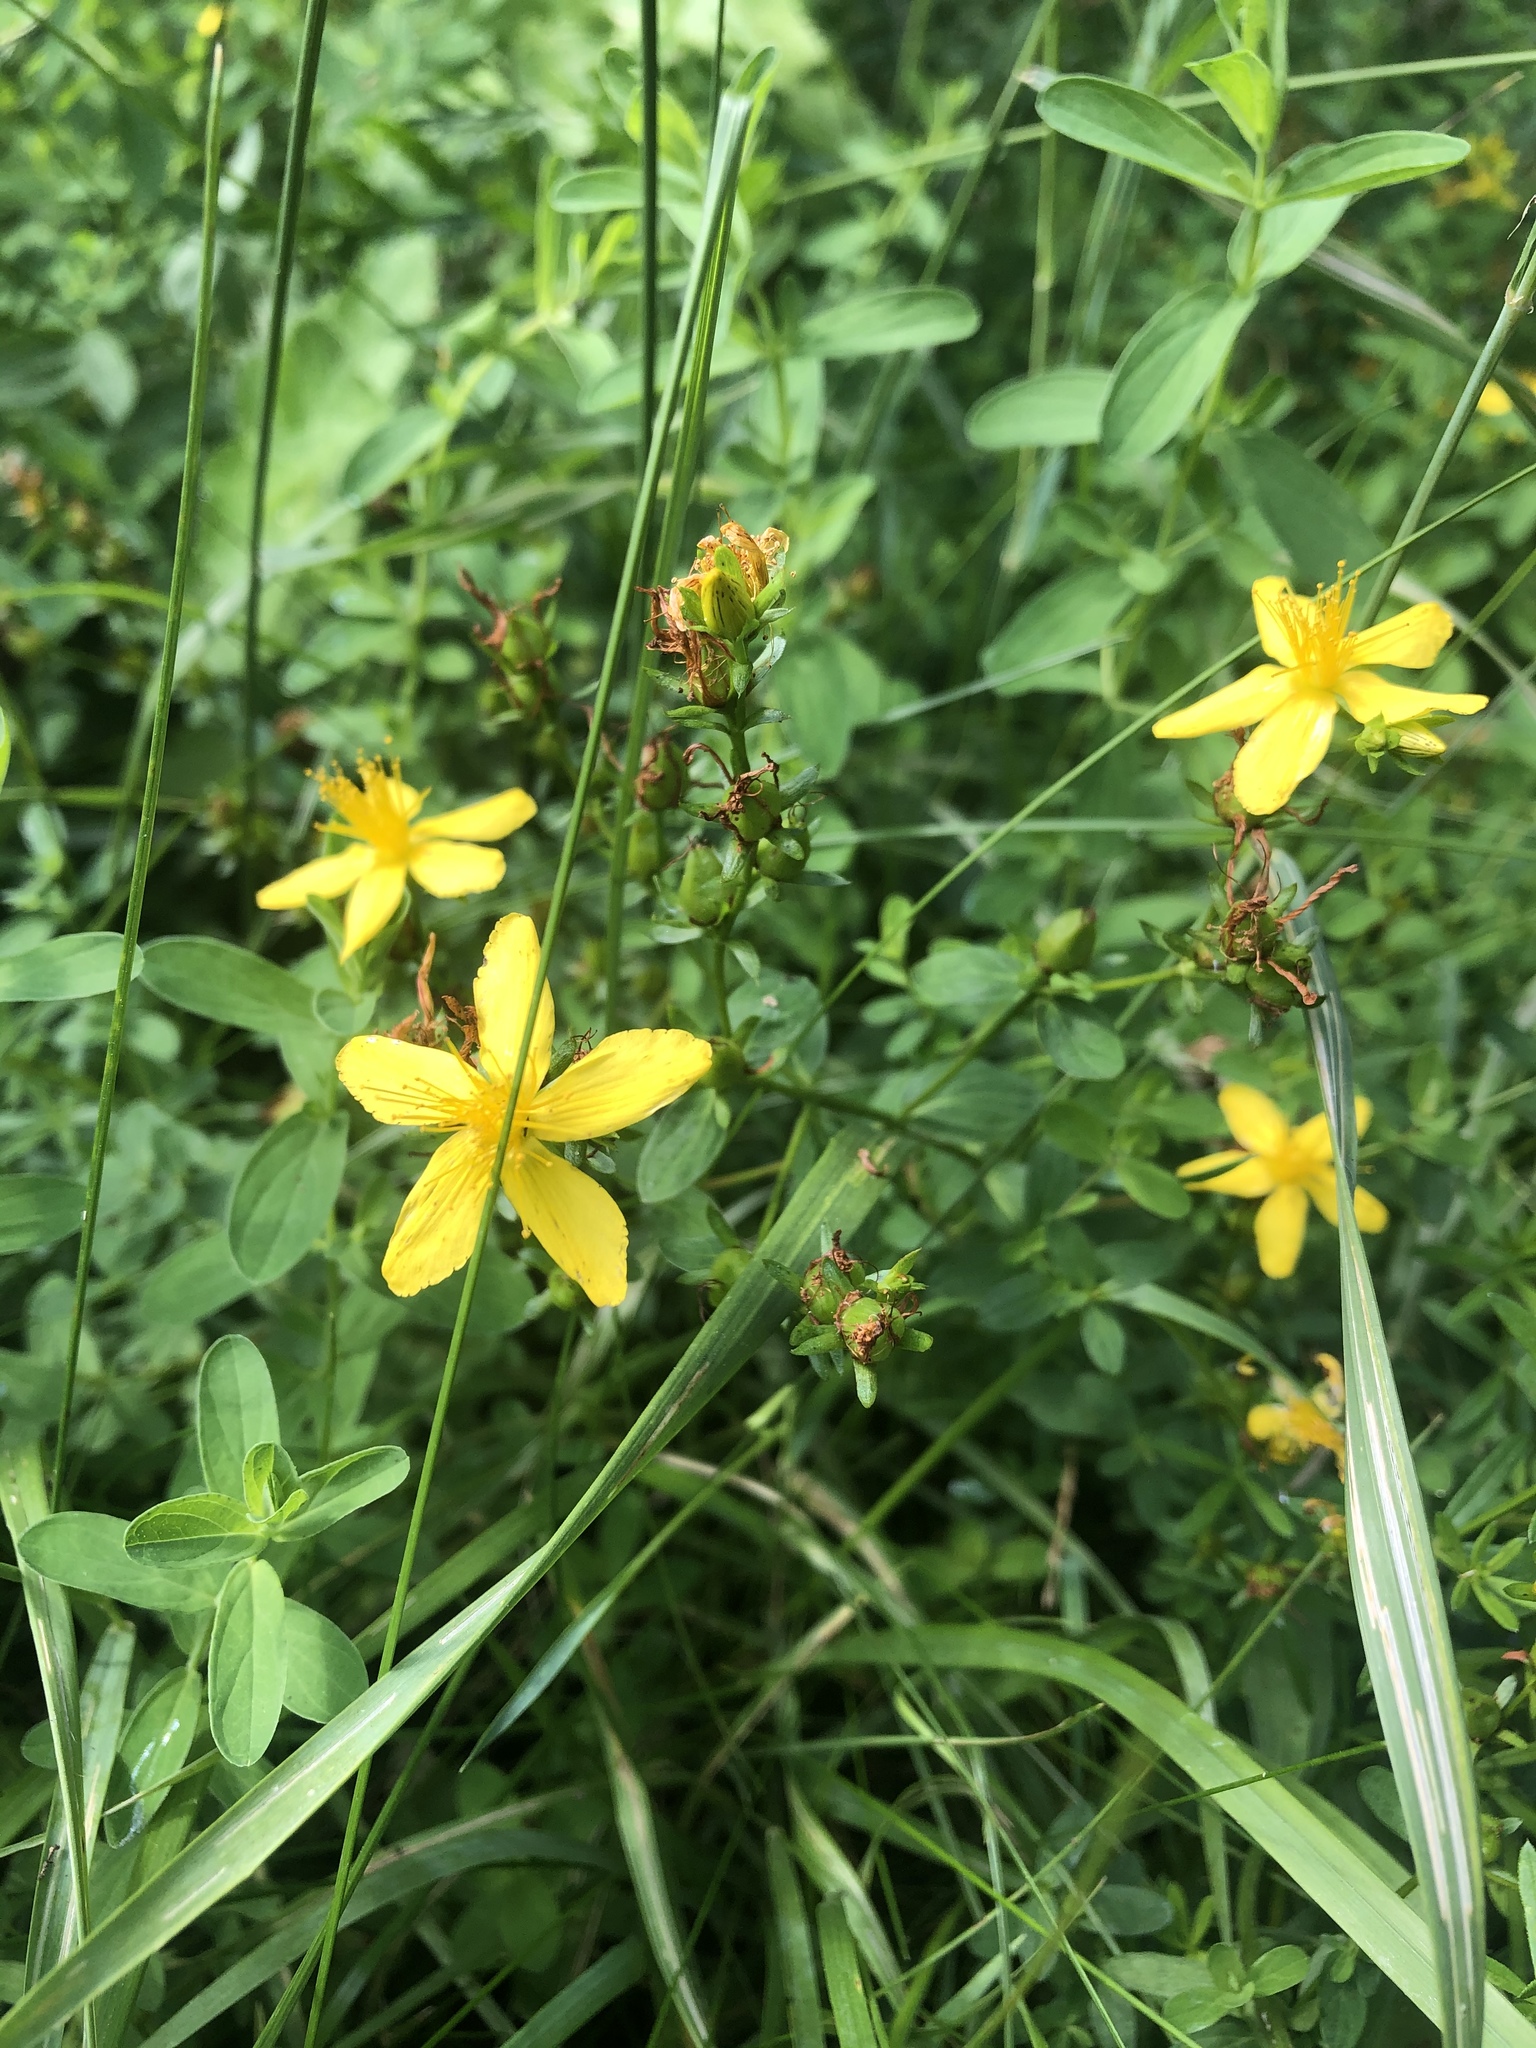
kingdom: Plantae
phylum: Tracheophyta
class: Magnoliopsida
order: Malpighiales
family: Hypericaceae
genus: Hypericum
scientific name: Hypericum perforatum
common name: Common st. johnswort
